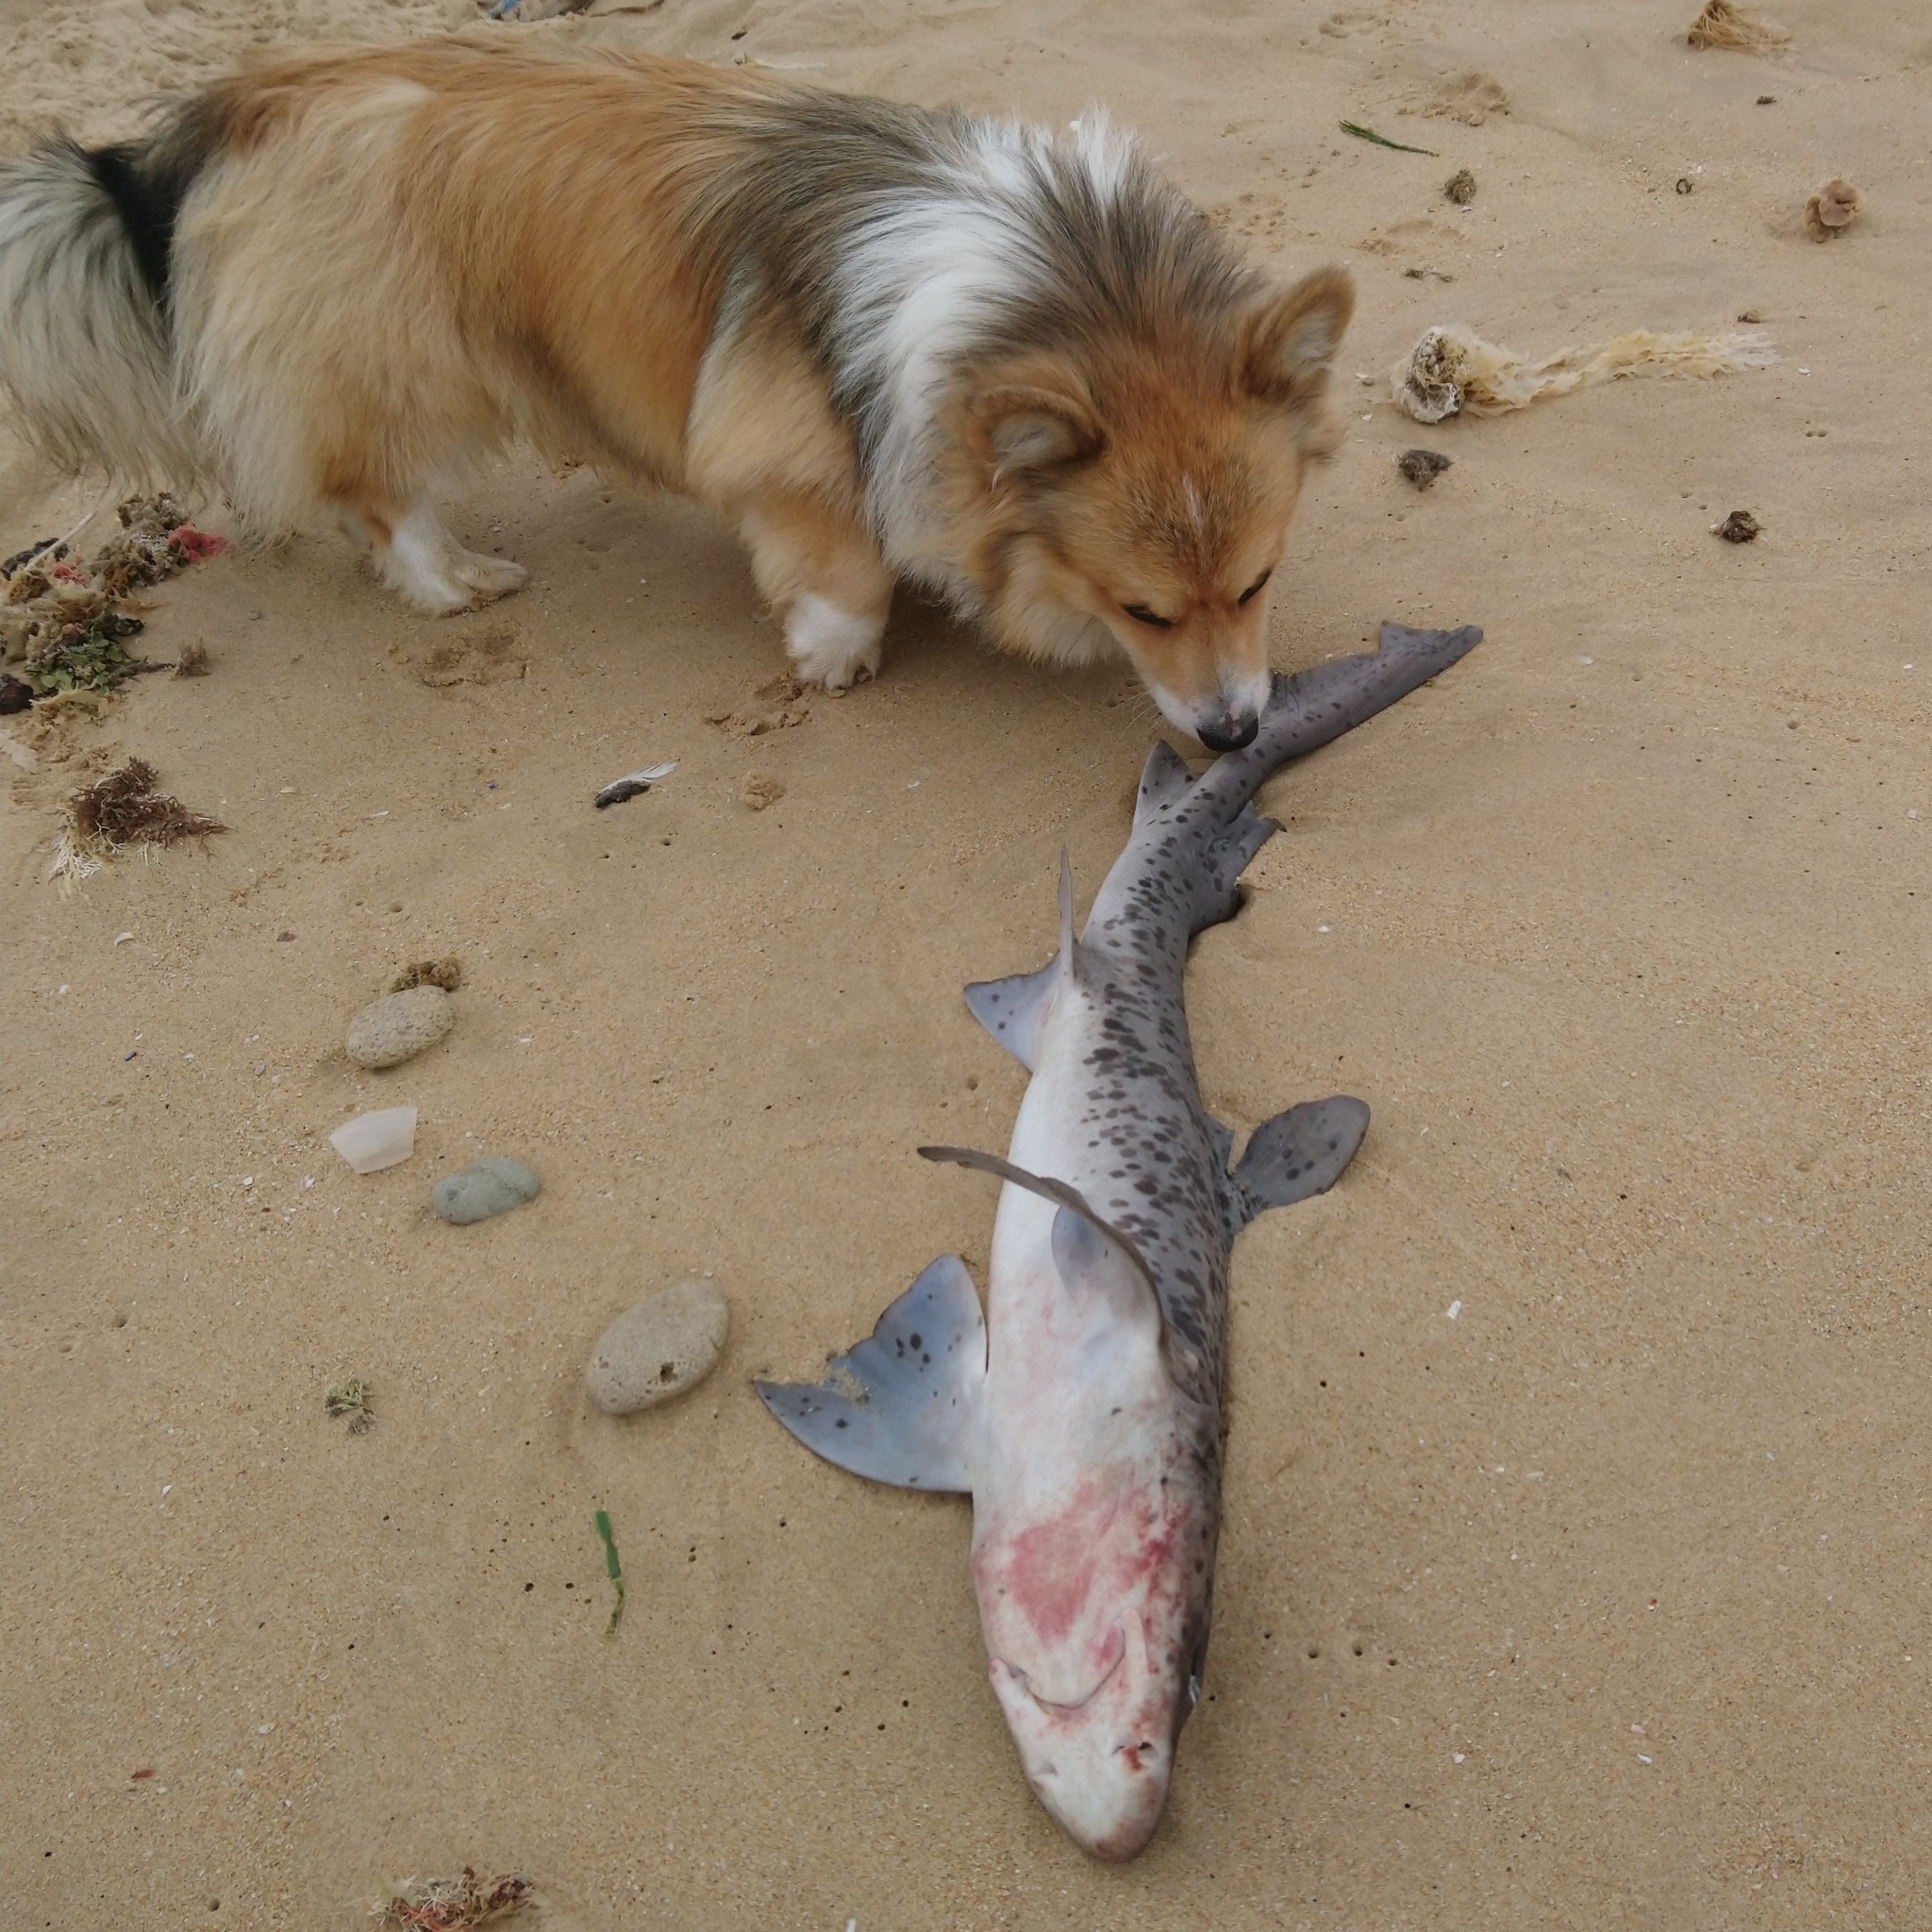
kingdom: Animalia
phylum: Chordata
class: Elasmobranchii
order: Carcharhiniformes
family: Triakidae
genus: Triakis
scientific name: Triakis megalopterus
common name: Spotted gully shark
